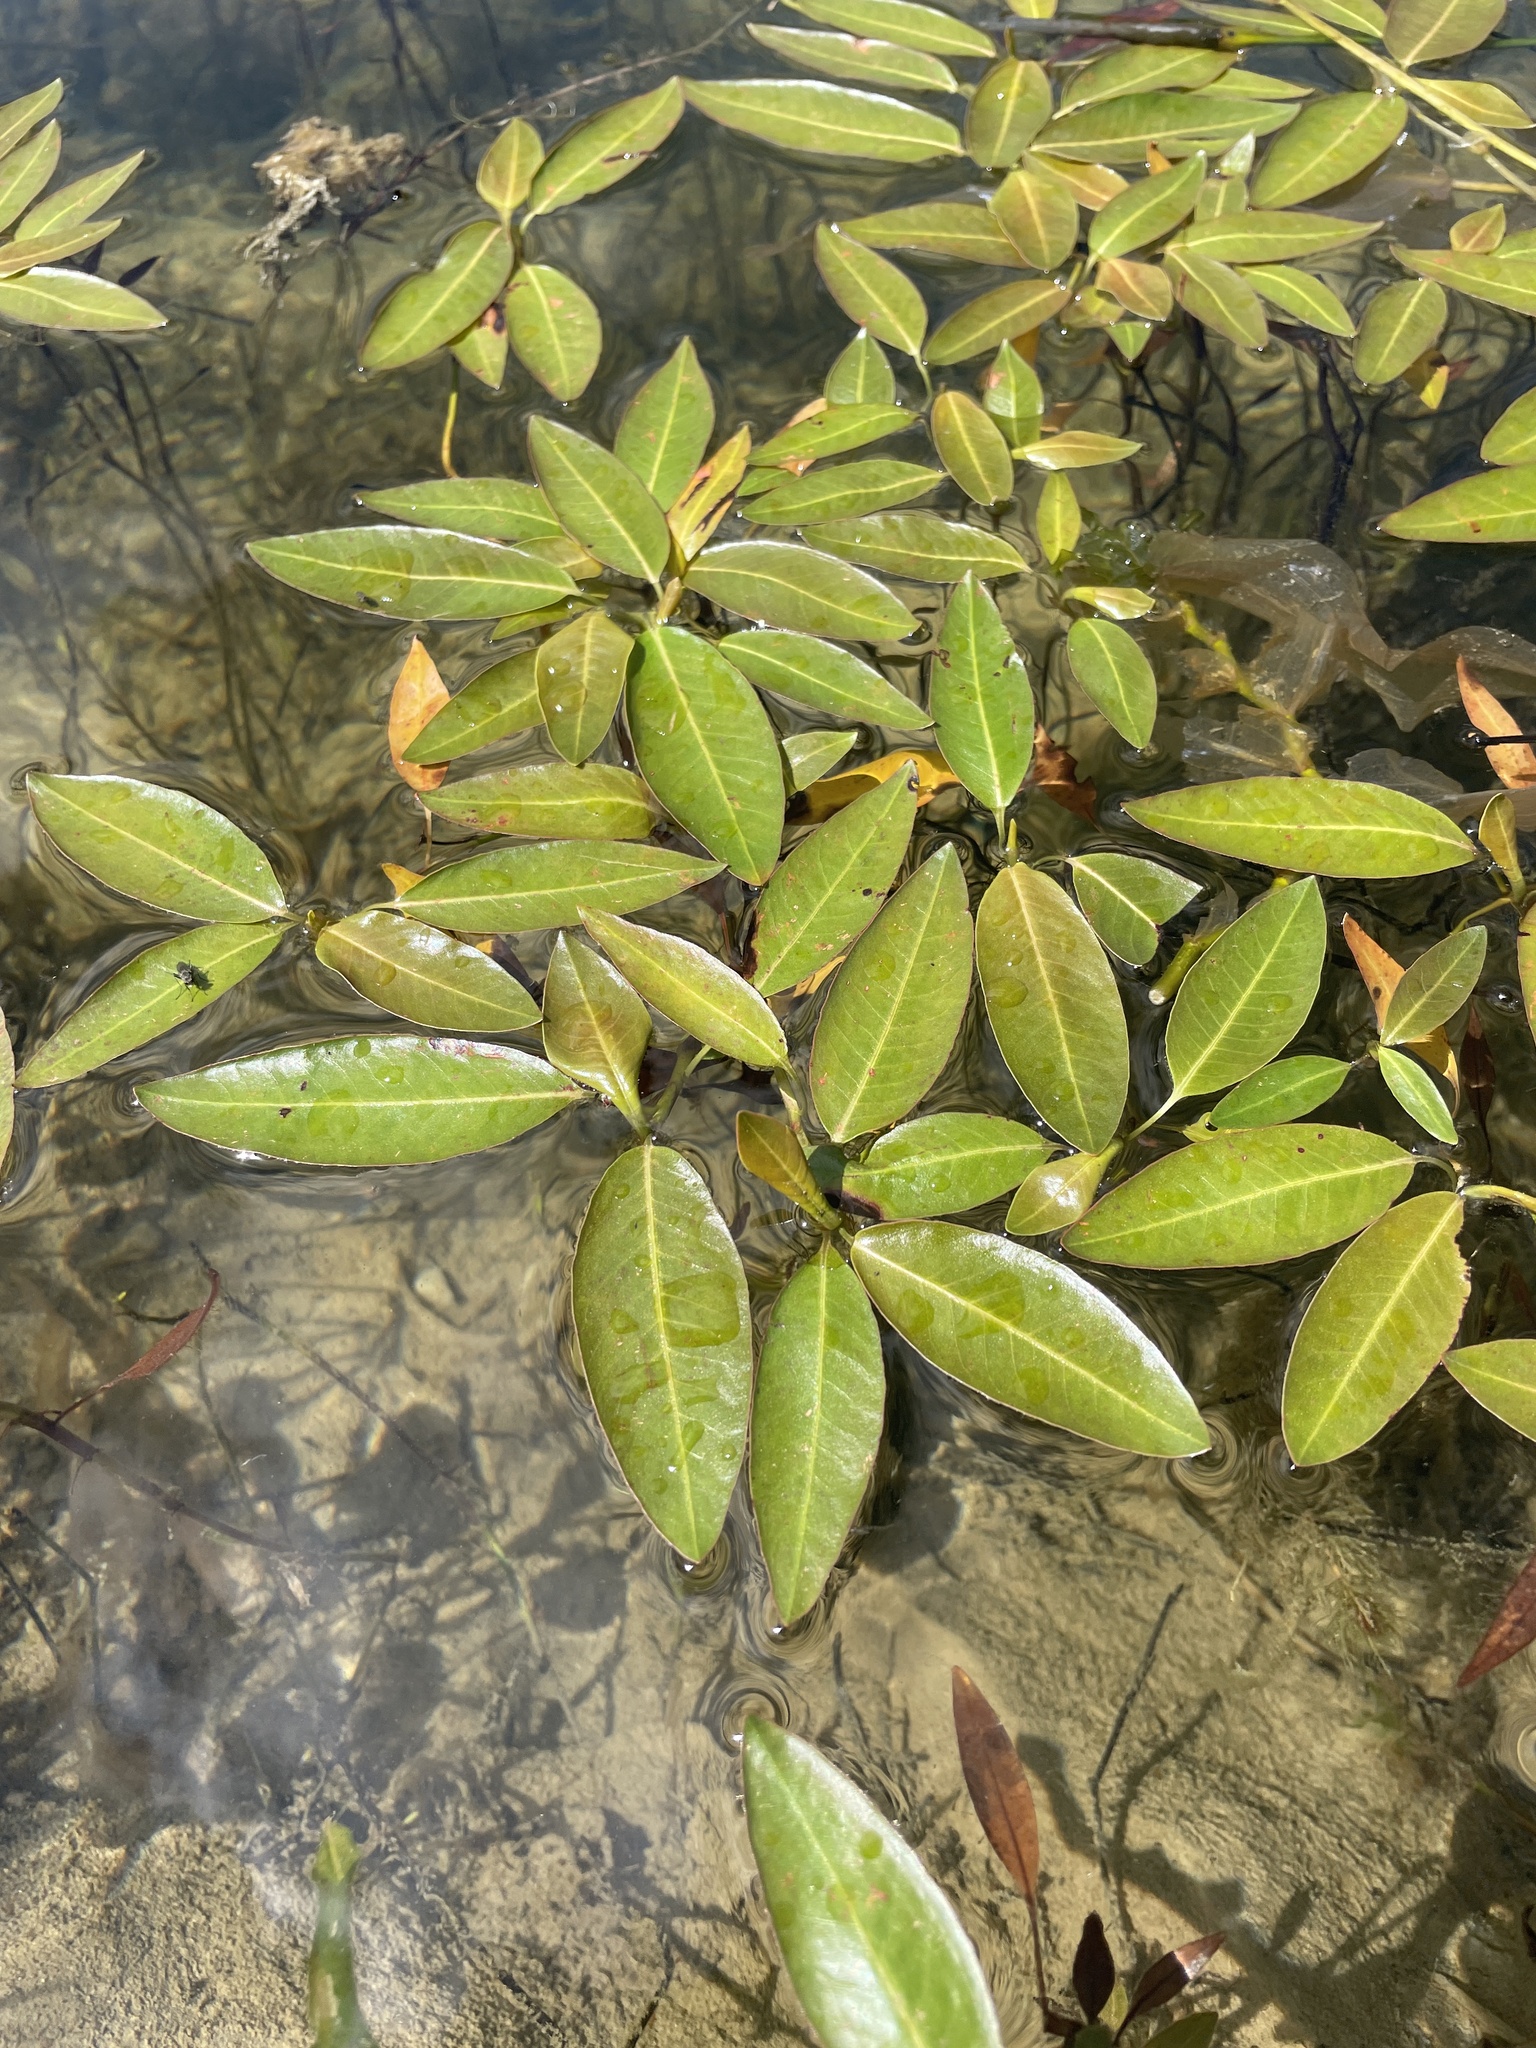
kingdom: Plantae
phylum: Tracheophyta
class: Magnoliopsida
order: Caryophyllales
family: Polygonaceae
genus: Persicaria
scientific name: Persicaria amphibia
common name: Amphibious bistort
